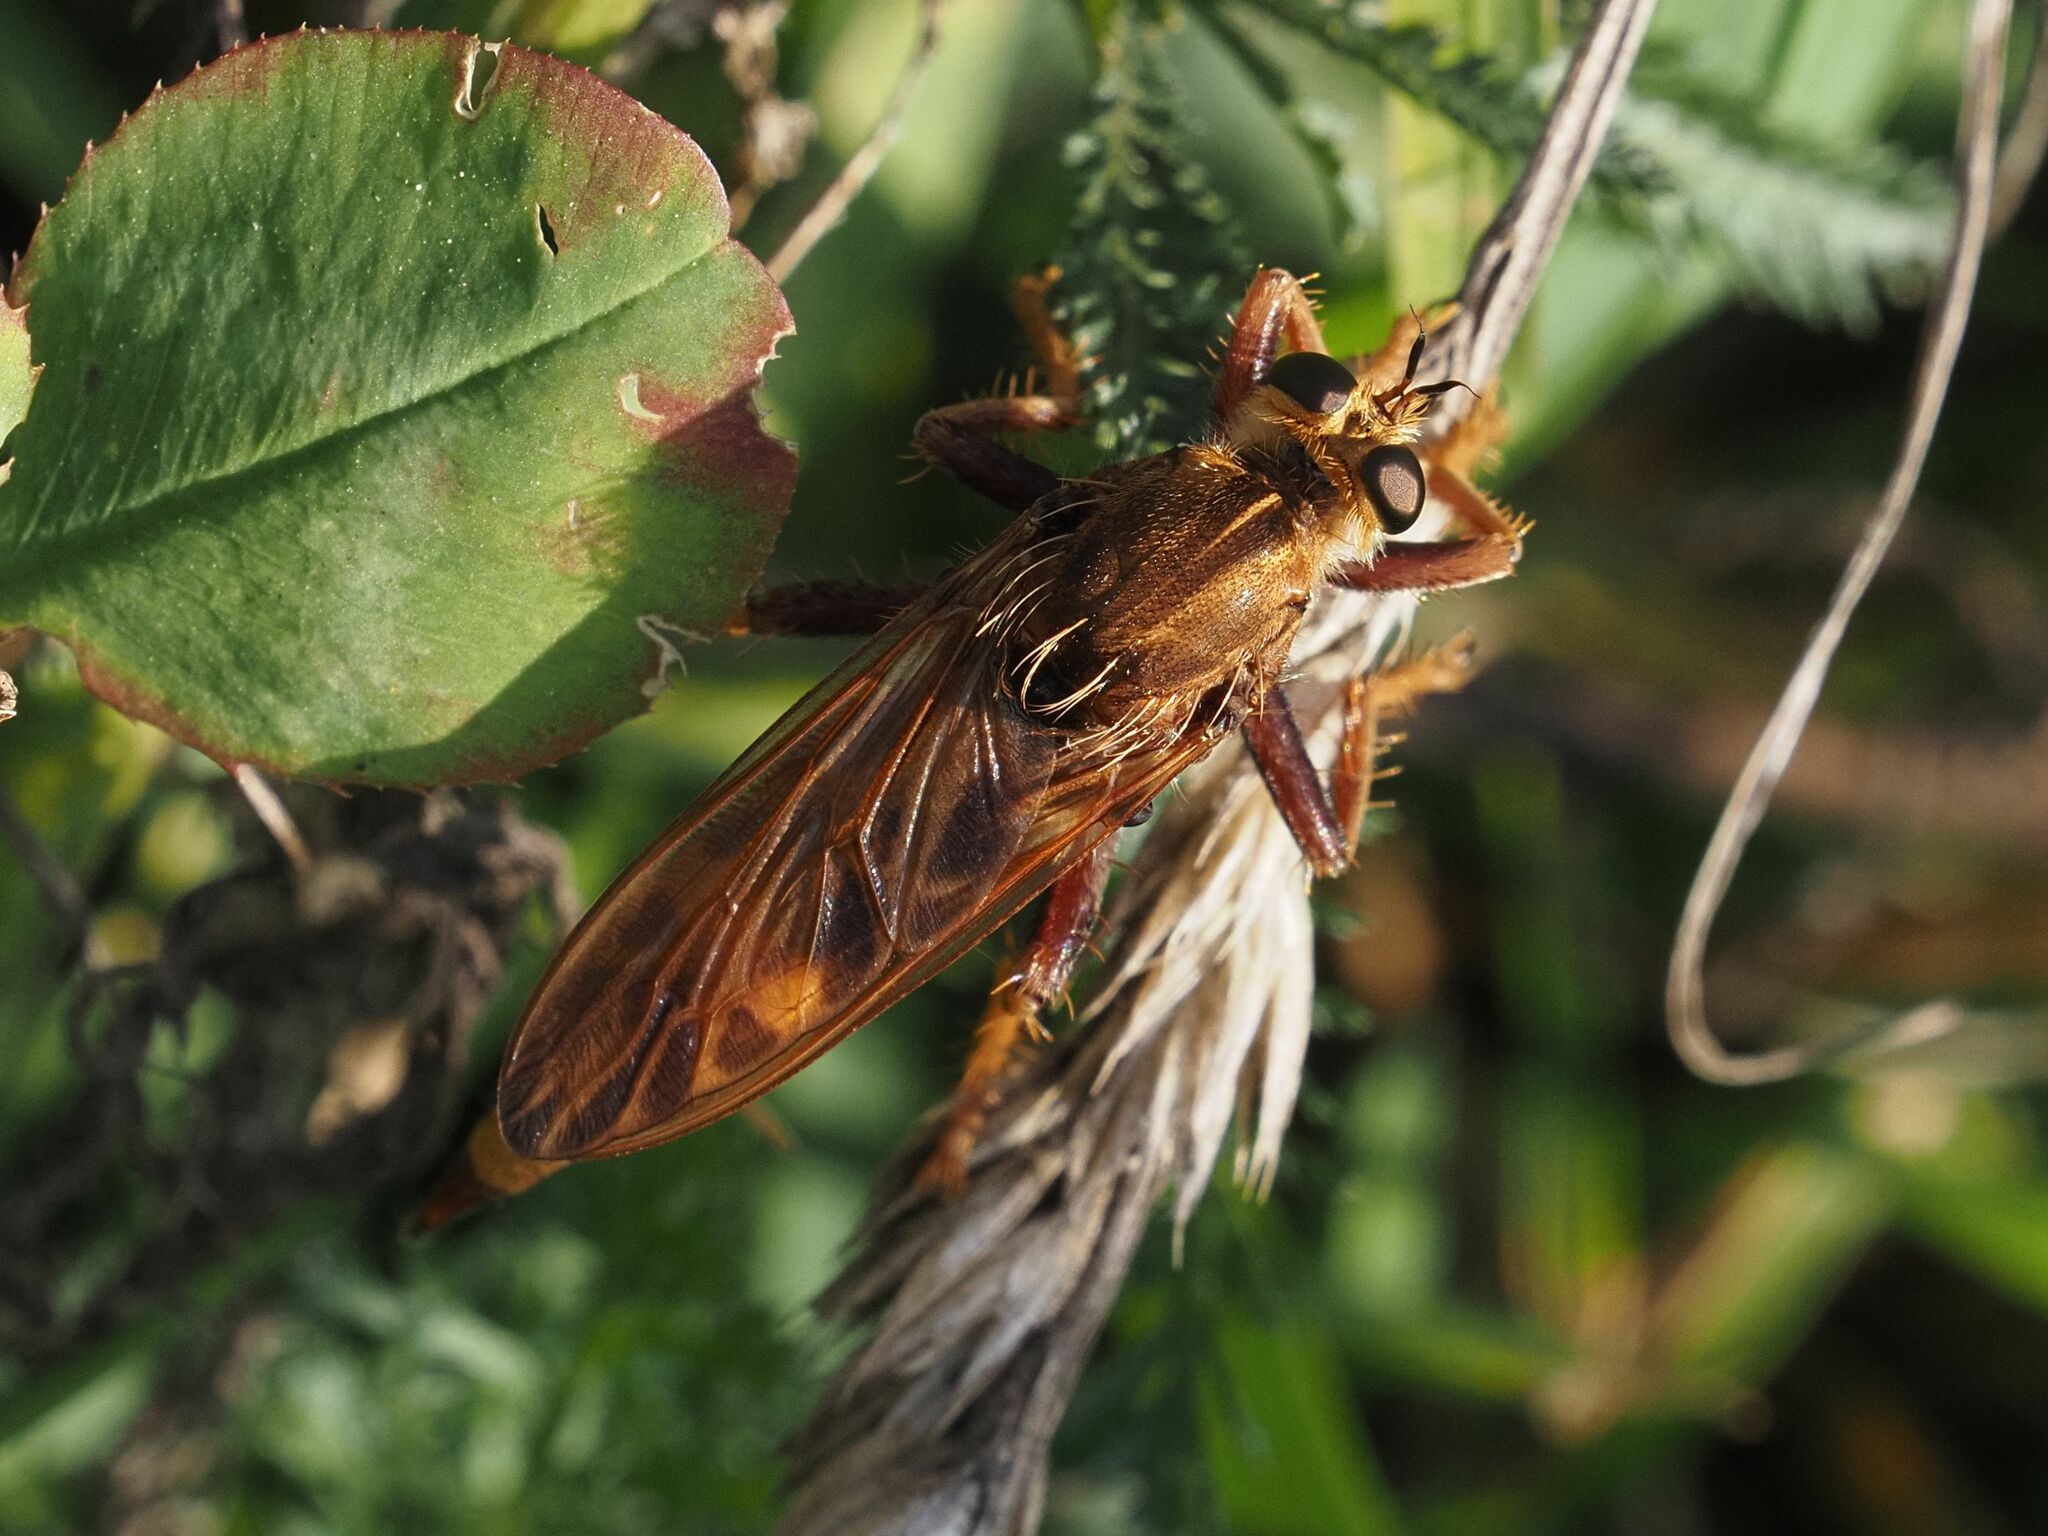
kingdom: Animalia
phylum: Arthropoda
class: Insecta
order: Diptera
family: Asilidae
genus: Asilus
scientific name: Asilus crabroniformis
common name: Hornet robberfly
